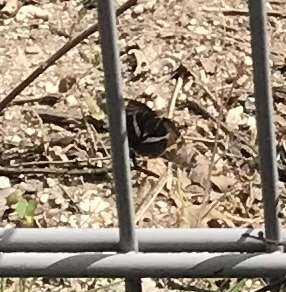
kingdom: Animalia
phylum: Arthropoda
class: Insecta
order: Lepidoptera
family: Hesperiidae
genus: Chioides
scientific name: Chioides catillus
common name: Silverbanded skipper
